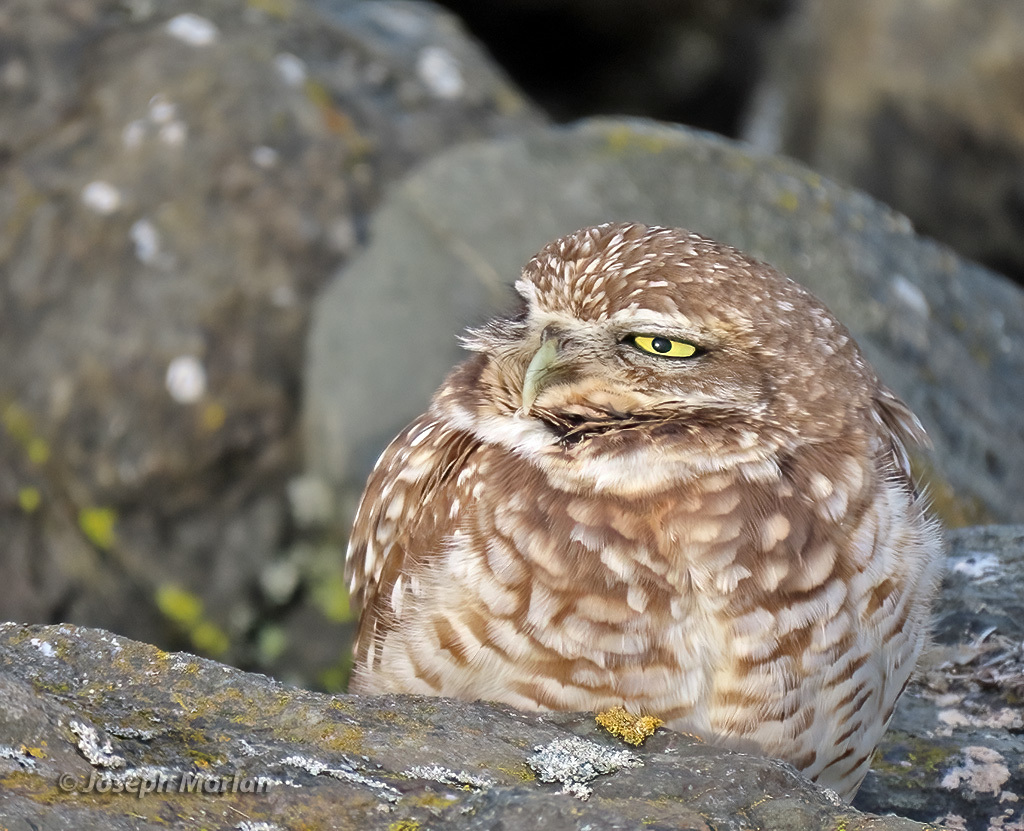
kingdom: Animalia
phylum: Chordata
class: Aves
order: Strigiformes
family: Strigidae
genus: Athene
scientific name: Athene cunicularia
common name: Burrowing owl
